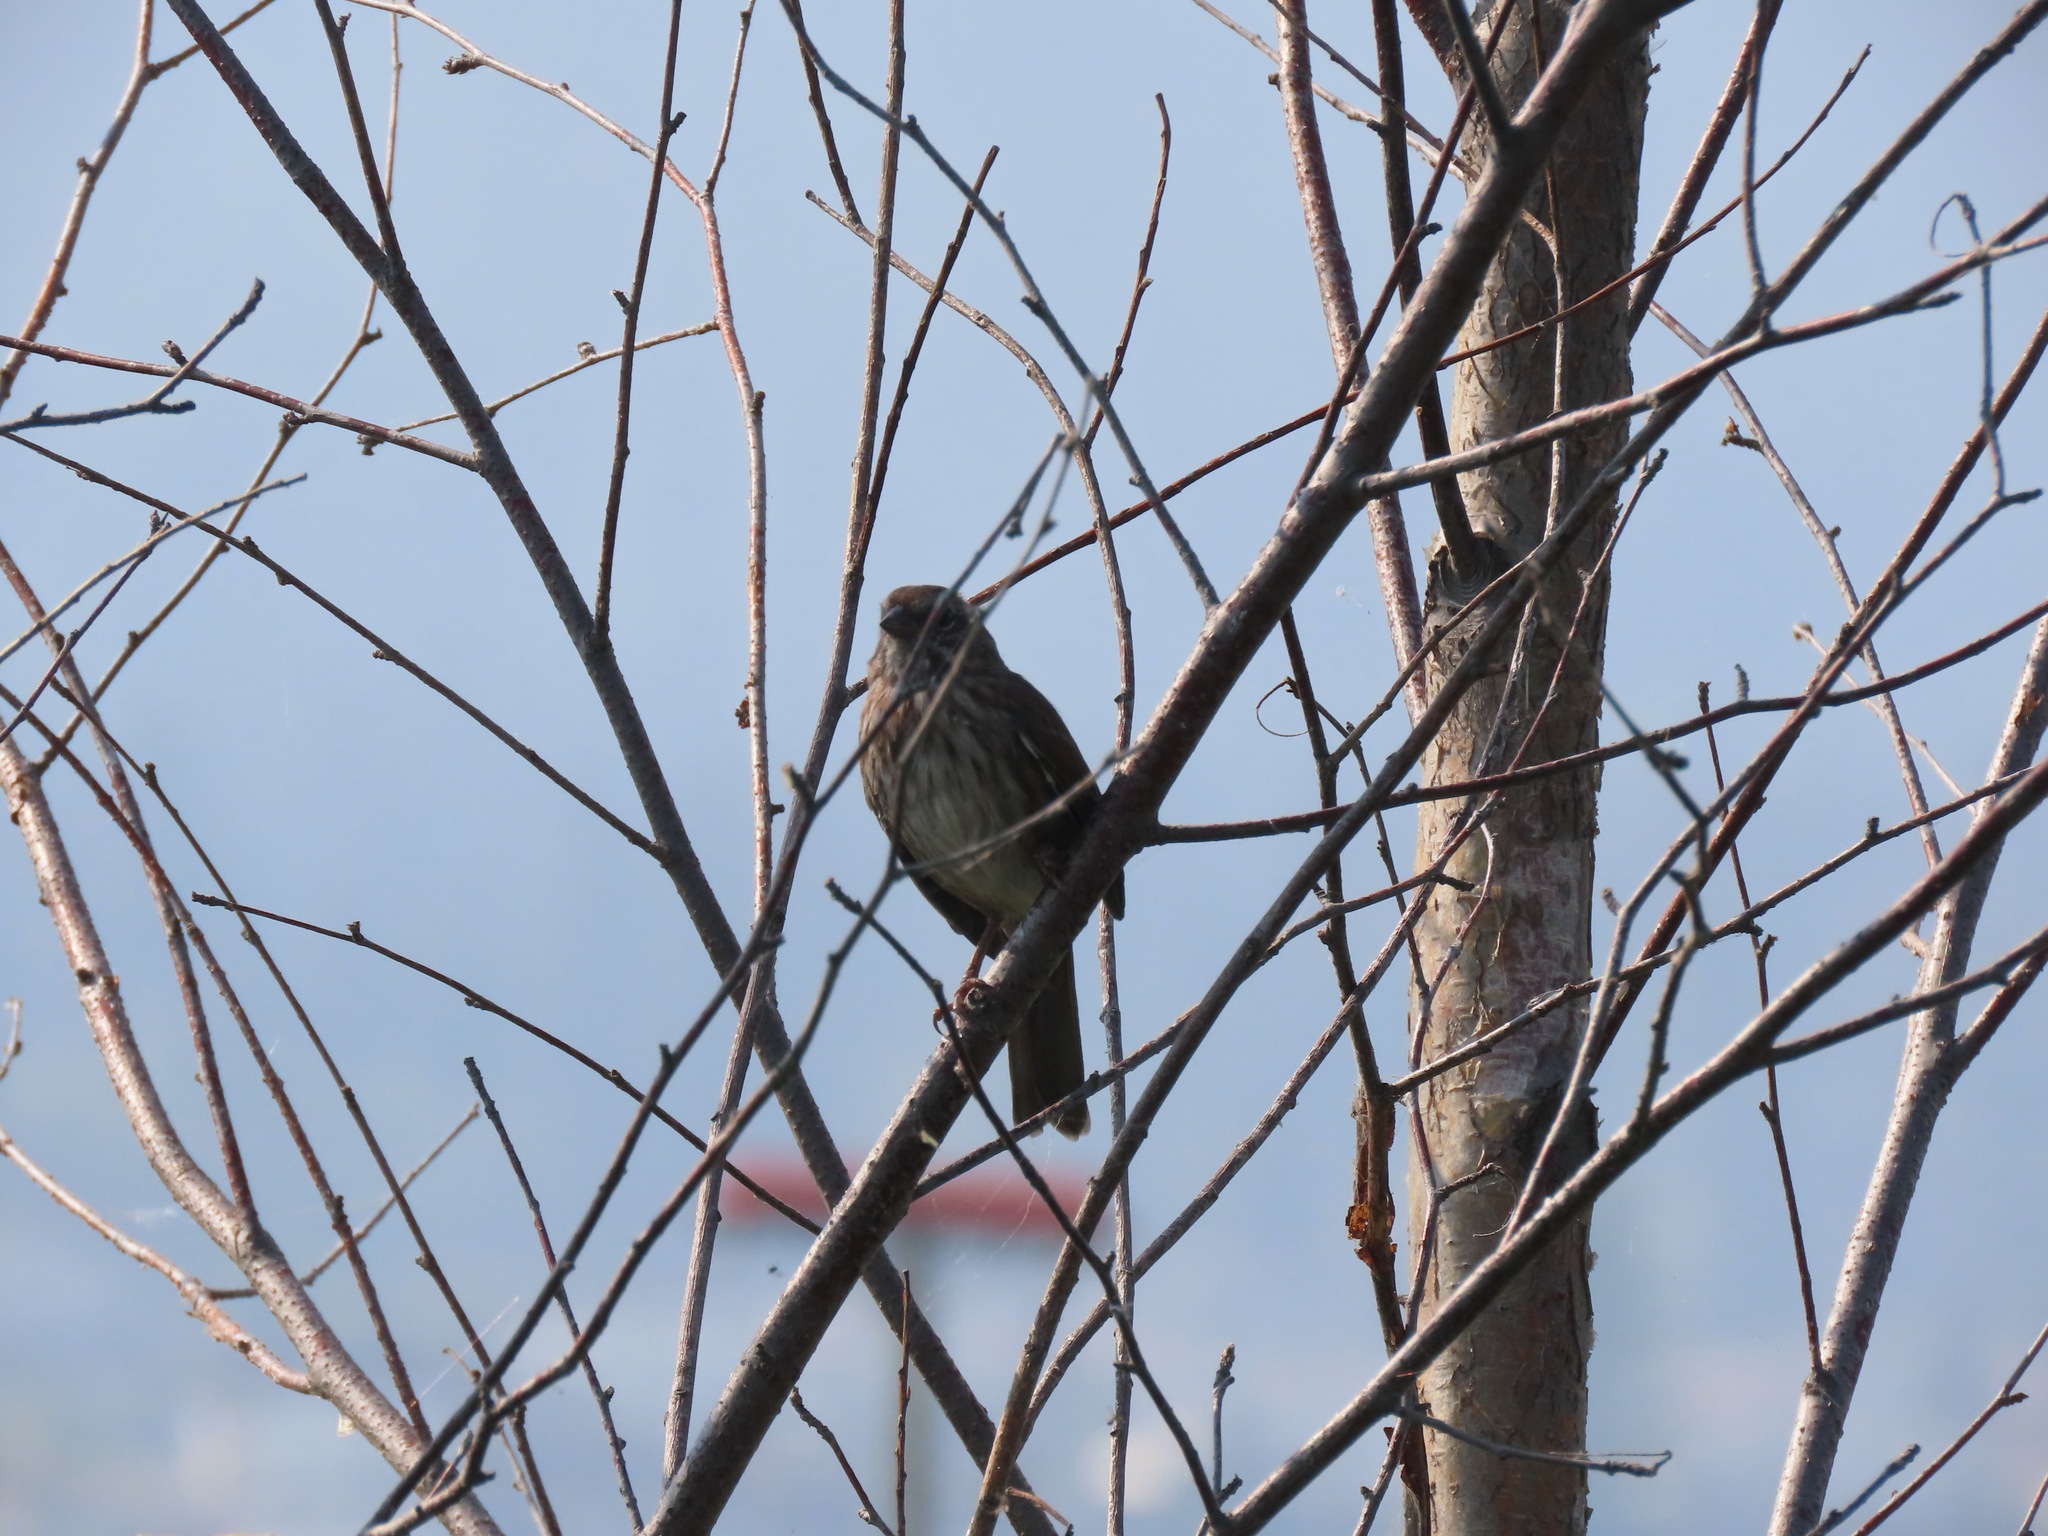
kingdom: Animalia
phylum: Chordata
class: Aves
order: Passeriformes
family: Passerellidae
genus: Melospiza
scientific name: Melospiza melodia
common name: Song sparrow
